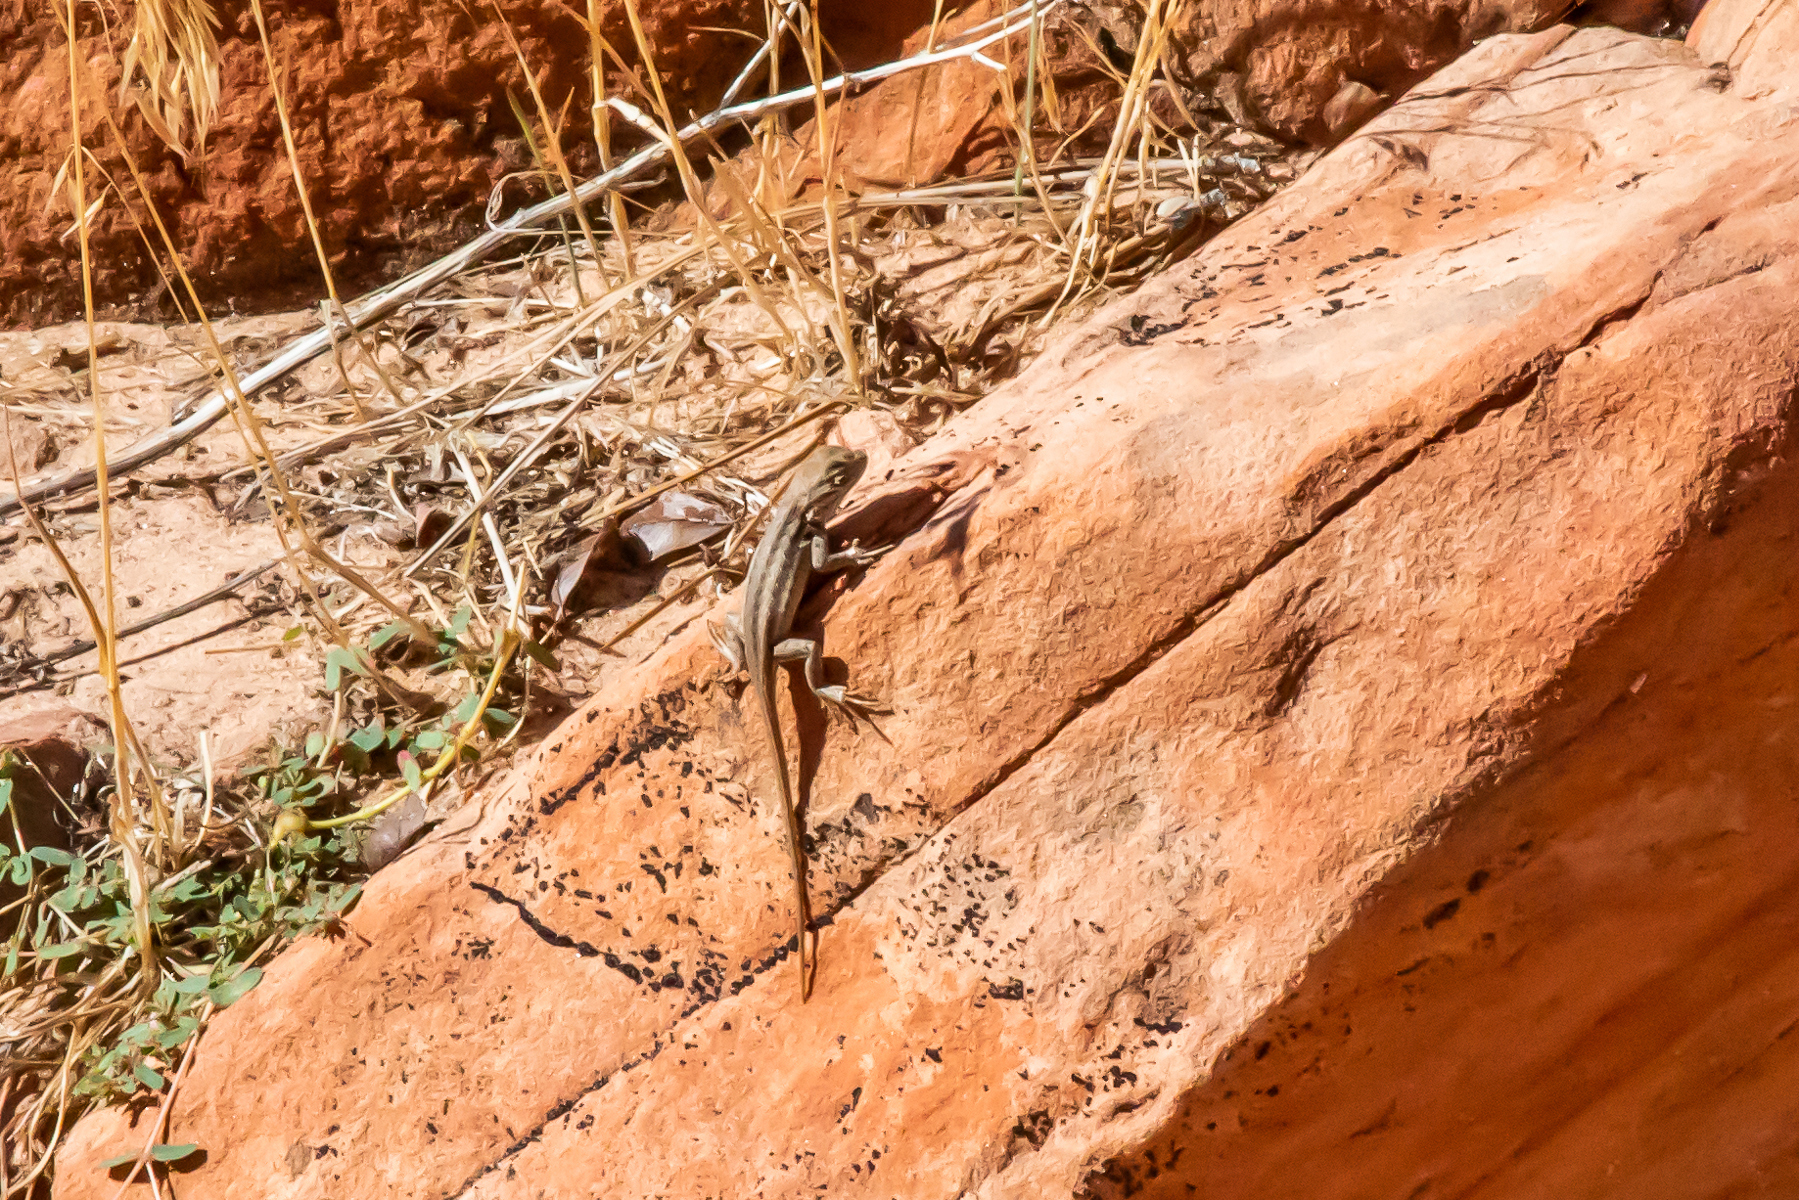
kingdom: Animalia
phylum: Chordata
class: Squamata
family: Phrynosomatidae
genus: Sceloporus
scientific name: Sceloporus graciosus
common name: Sagebrush lizard
